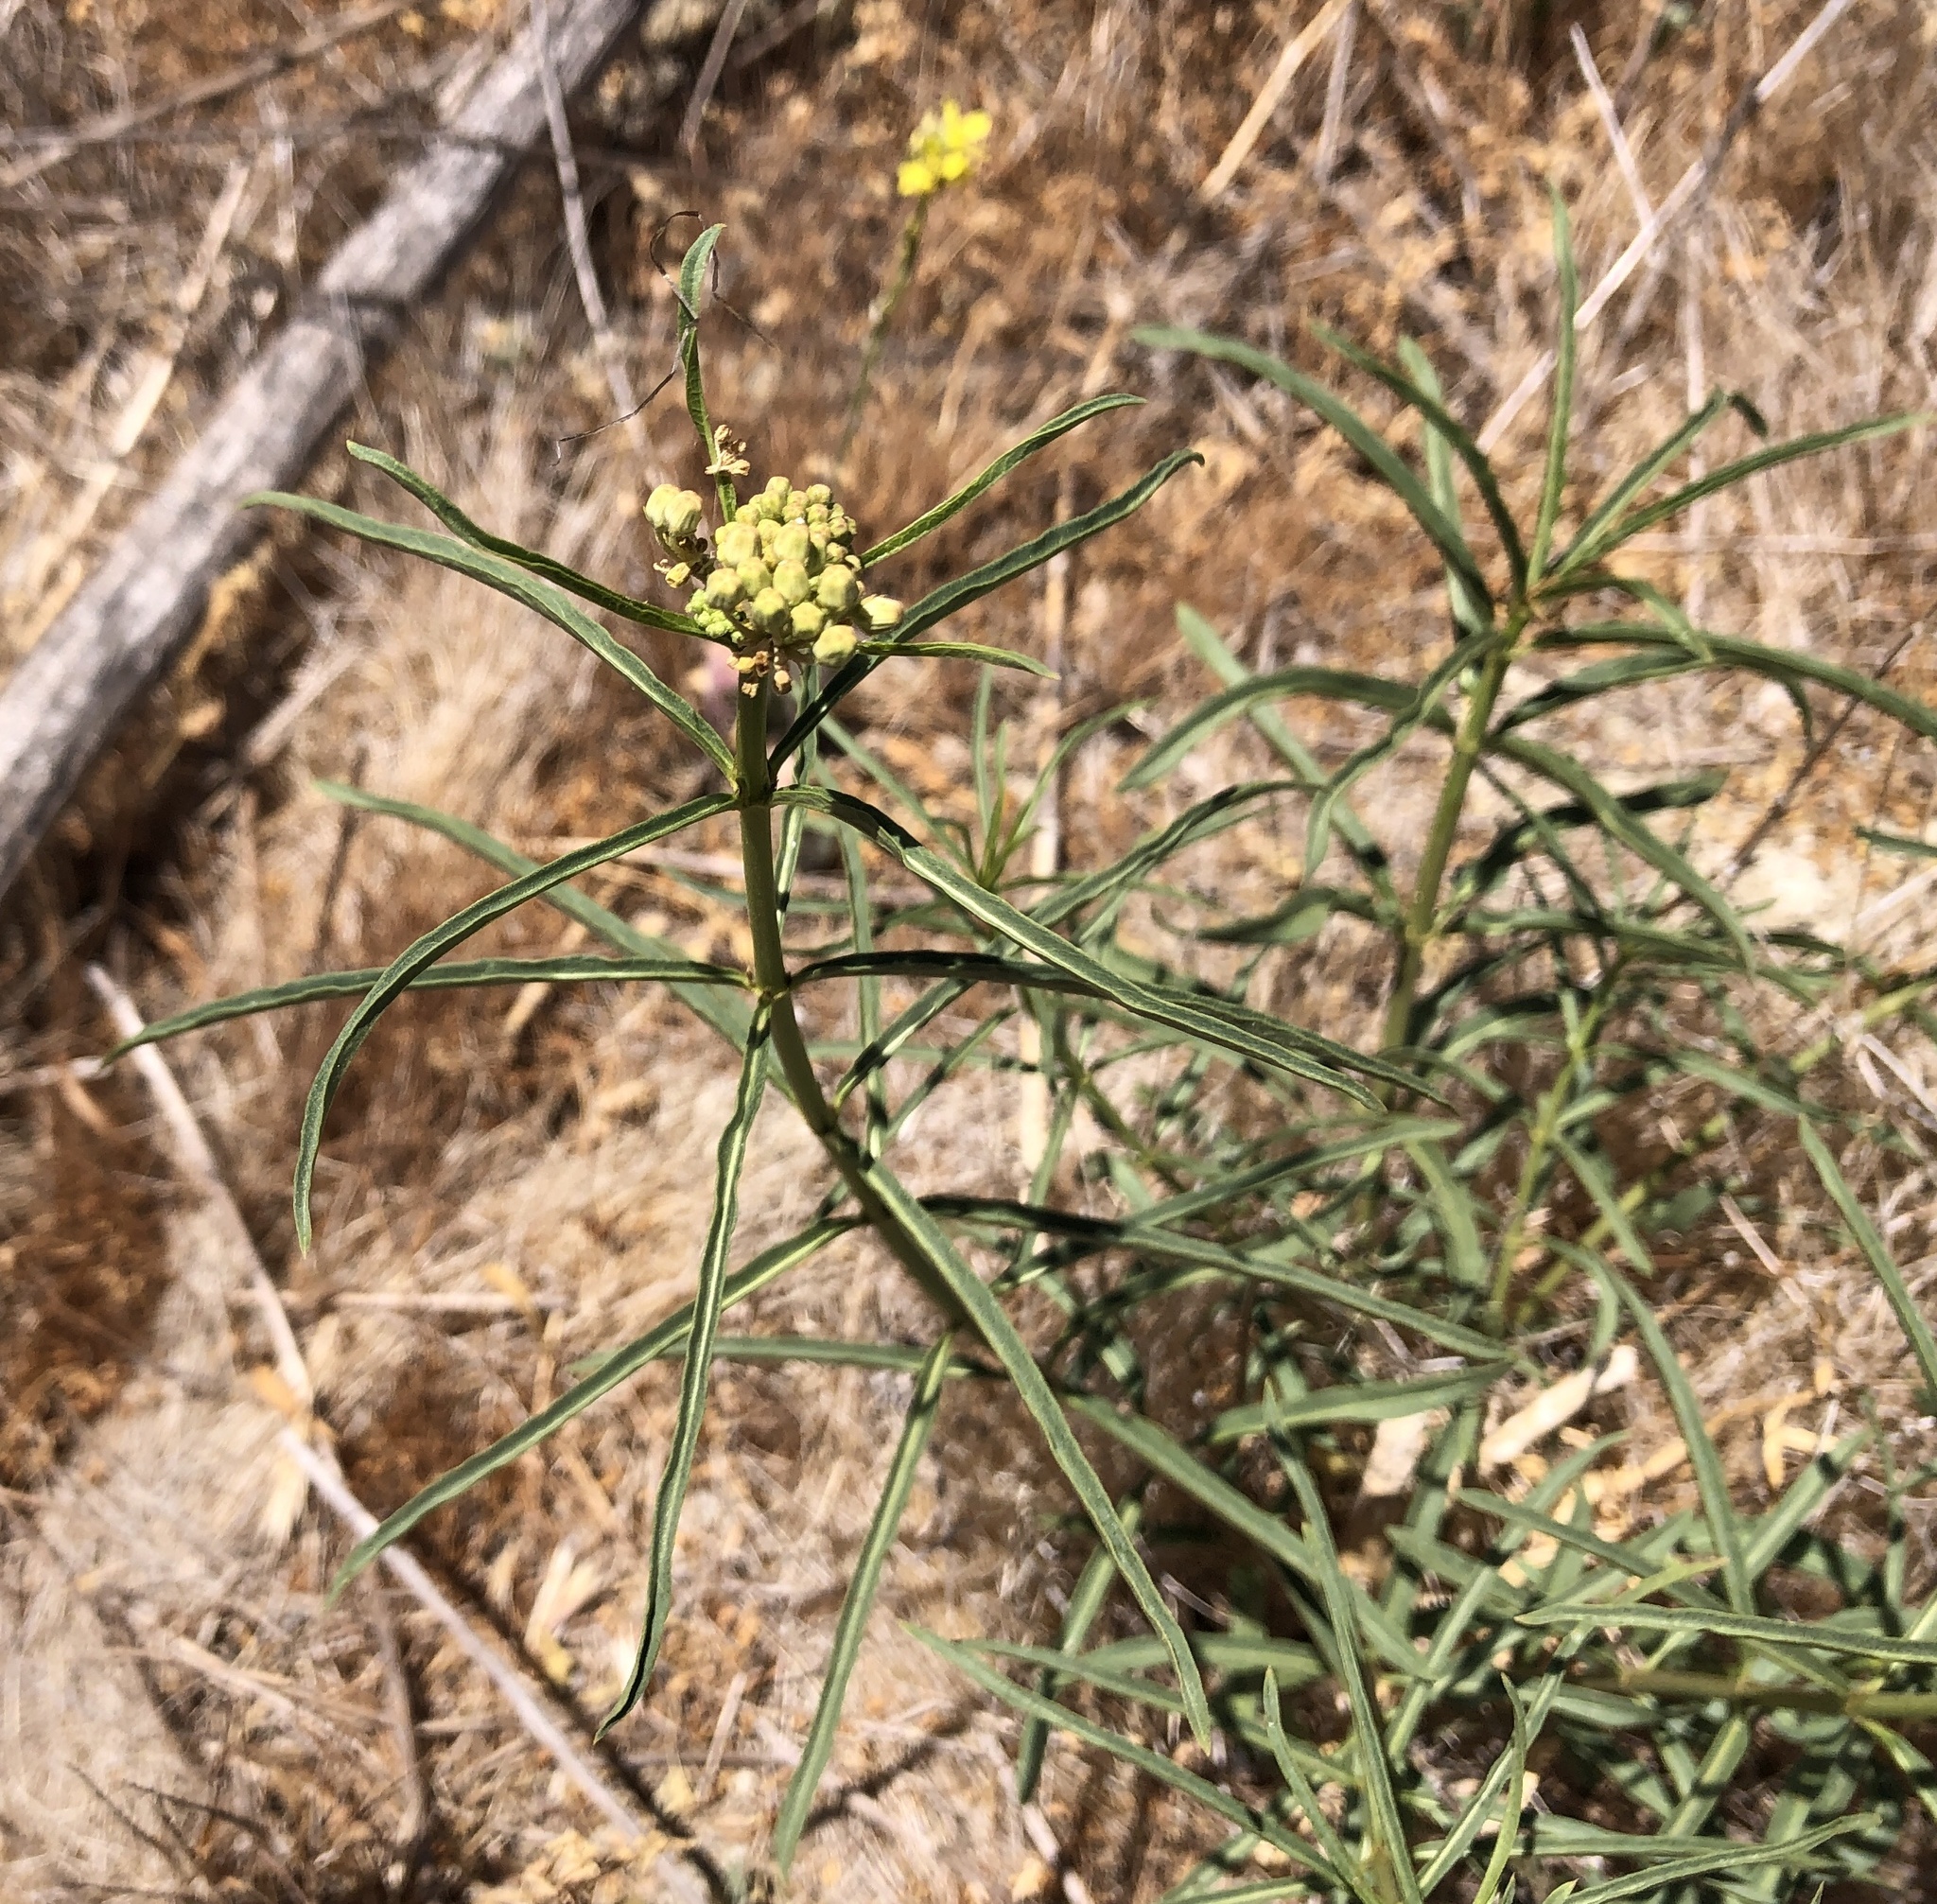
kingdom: Plantae
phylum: Tracheophyta
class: Magnoliopsida
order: Gentianales
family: Apocynaceae
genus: Asclepias
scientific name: Asclepias fascicularis
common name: Mexican milkweed
